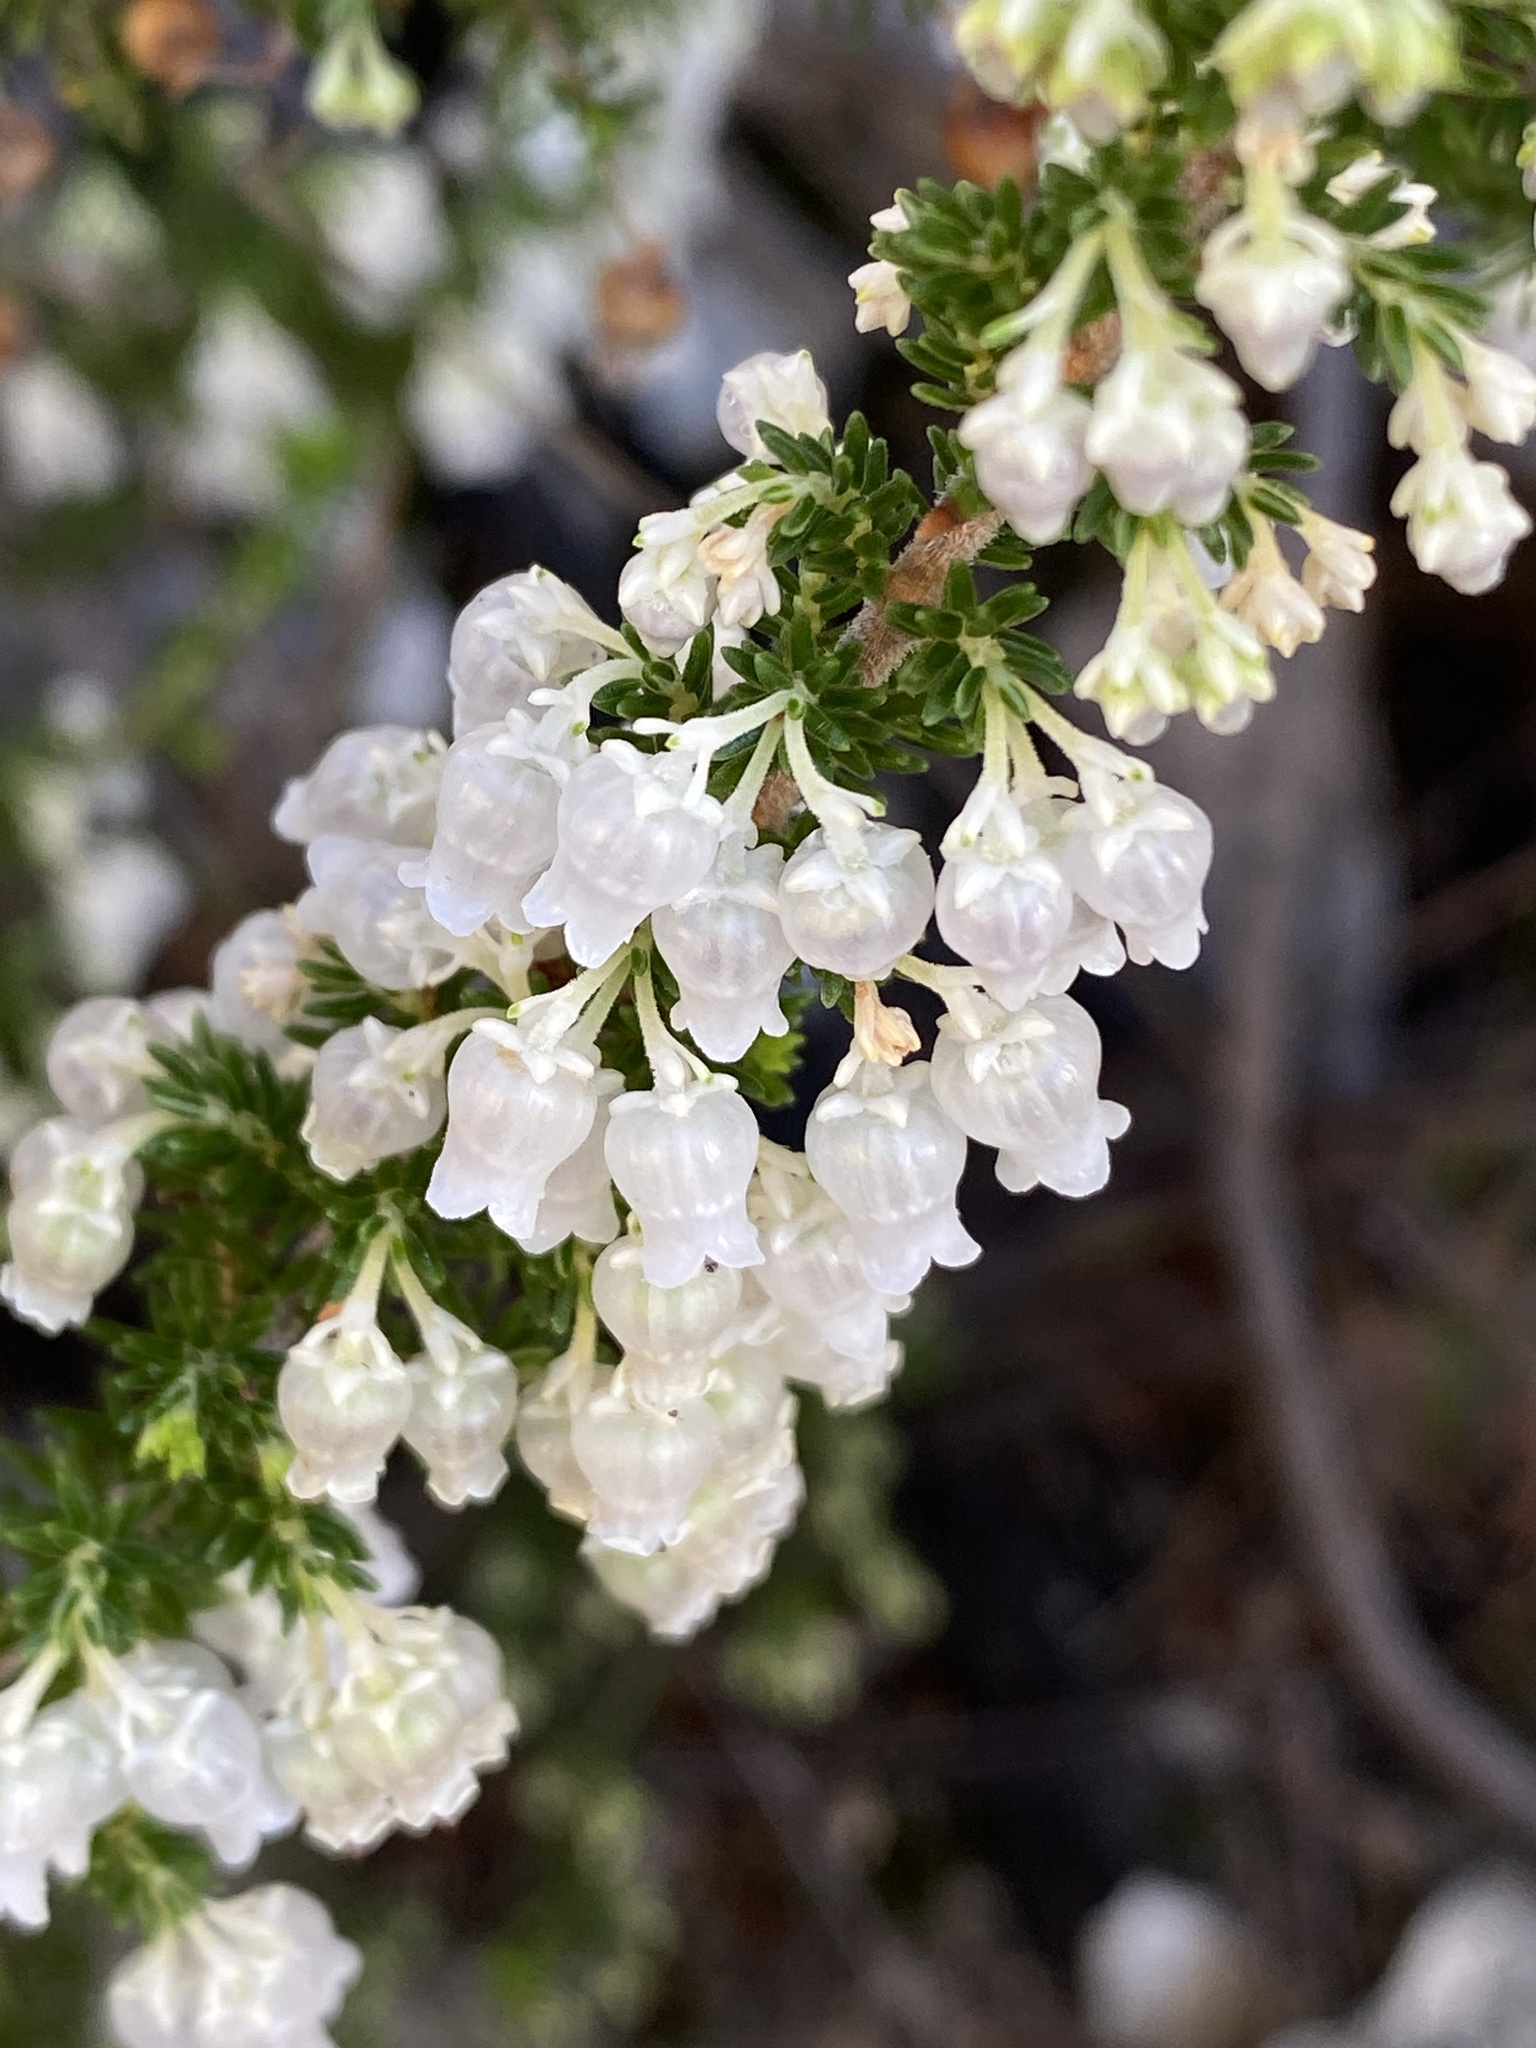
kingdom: Plantae
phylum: Tracheophyta
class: Magnoliopsida
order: Ericales
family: Ericaceae
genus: Erica
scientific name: Erica glomiflora
